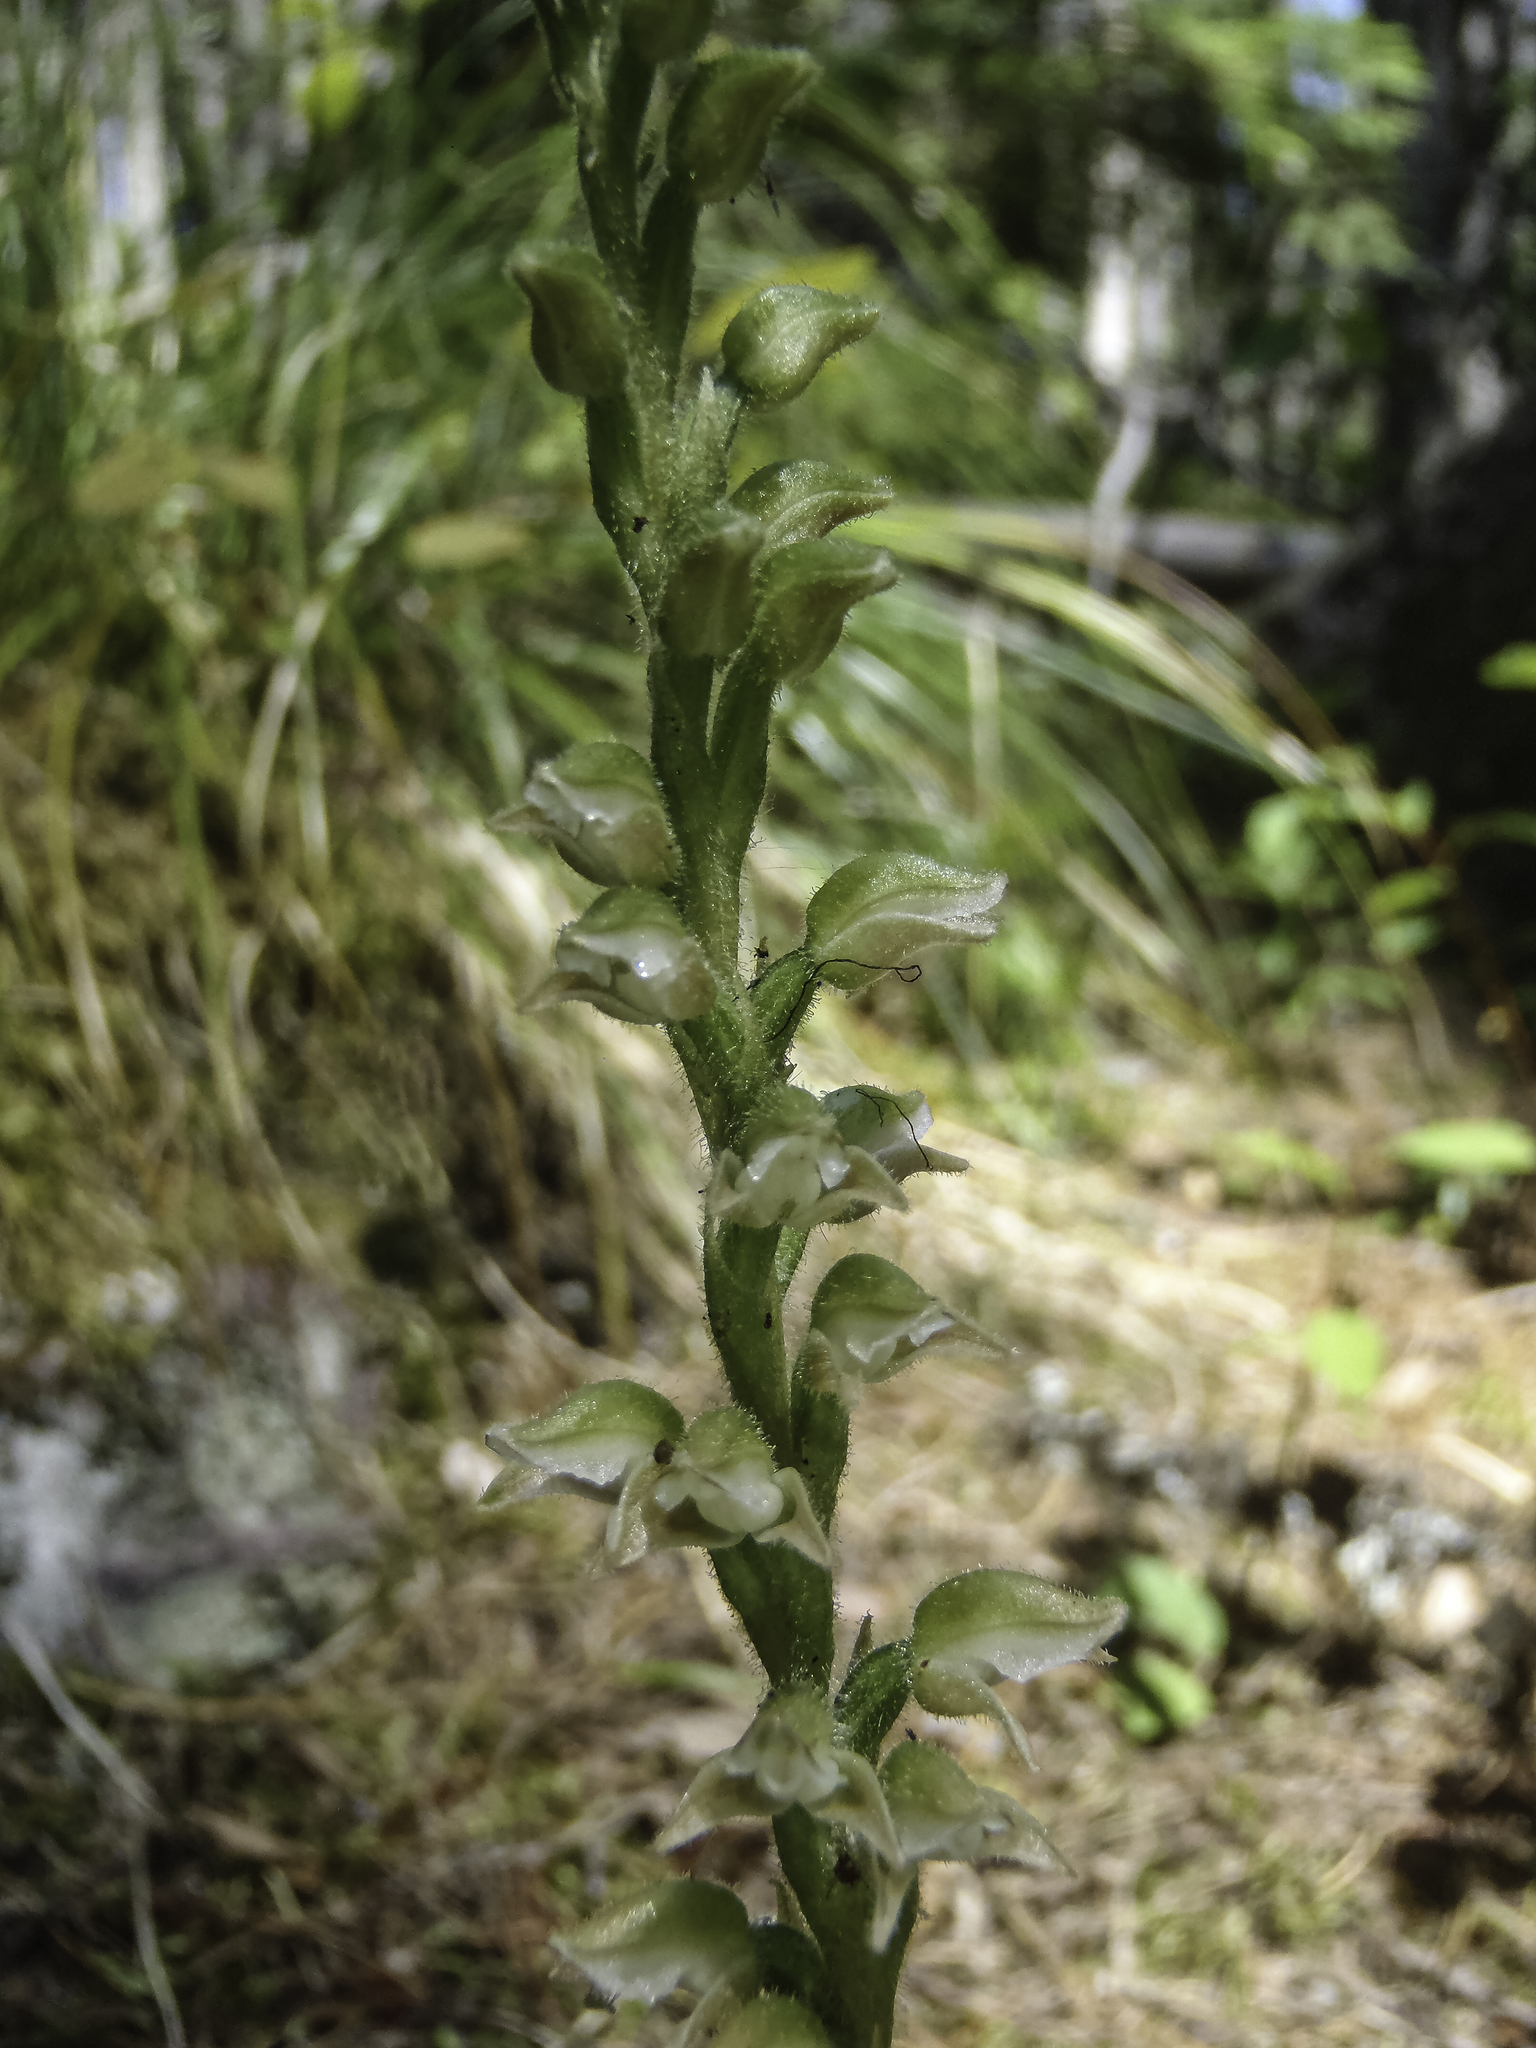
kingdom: Plantae
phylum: Tracheophyta
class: Liliopsida
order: Asparagales
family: Orchidaceae
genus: Goodyera
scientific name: Goodyera oblongifolia
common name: Giant rattlesnake-plantain
